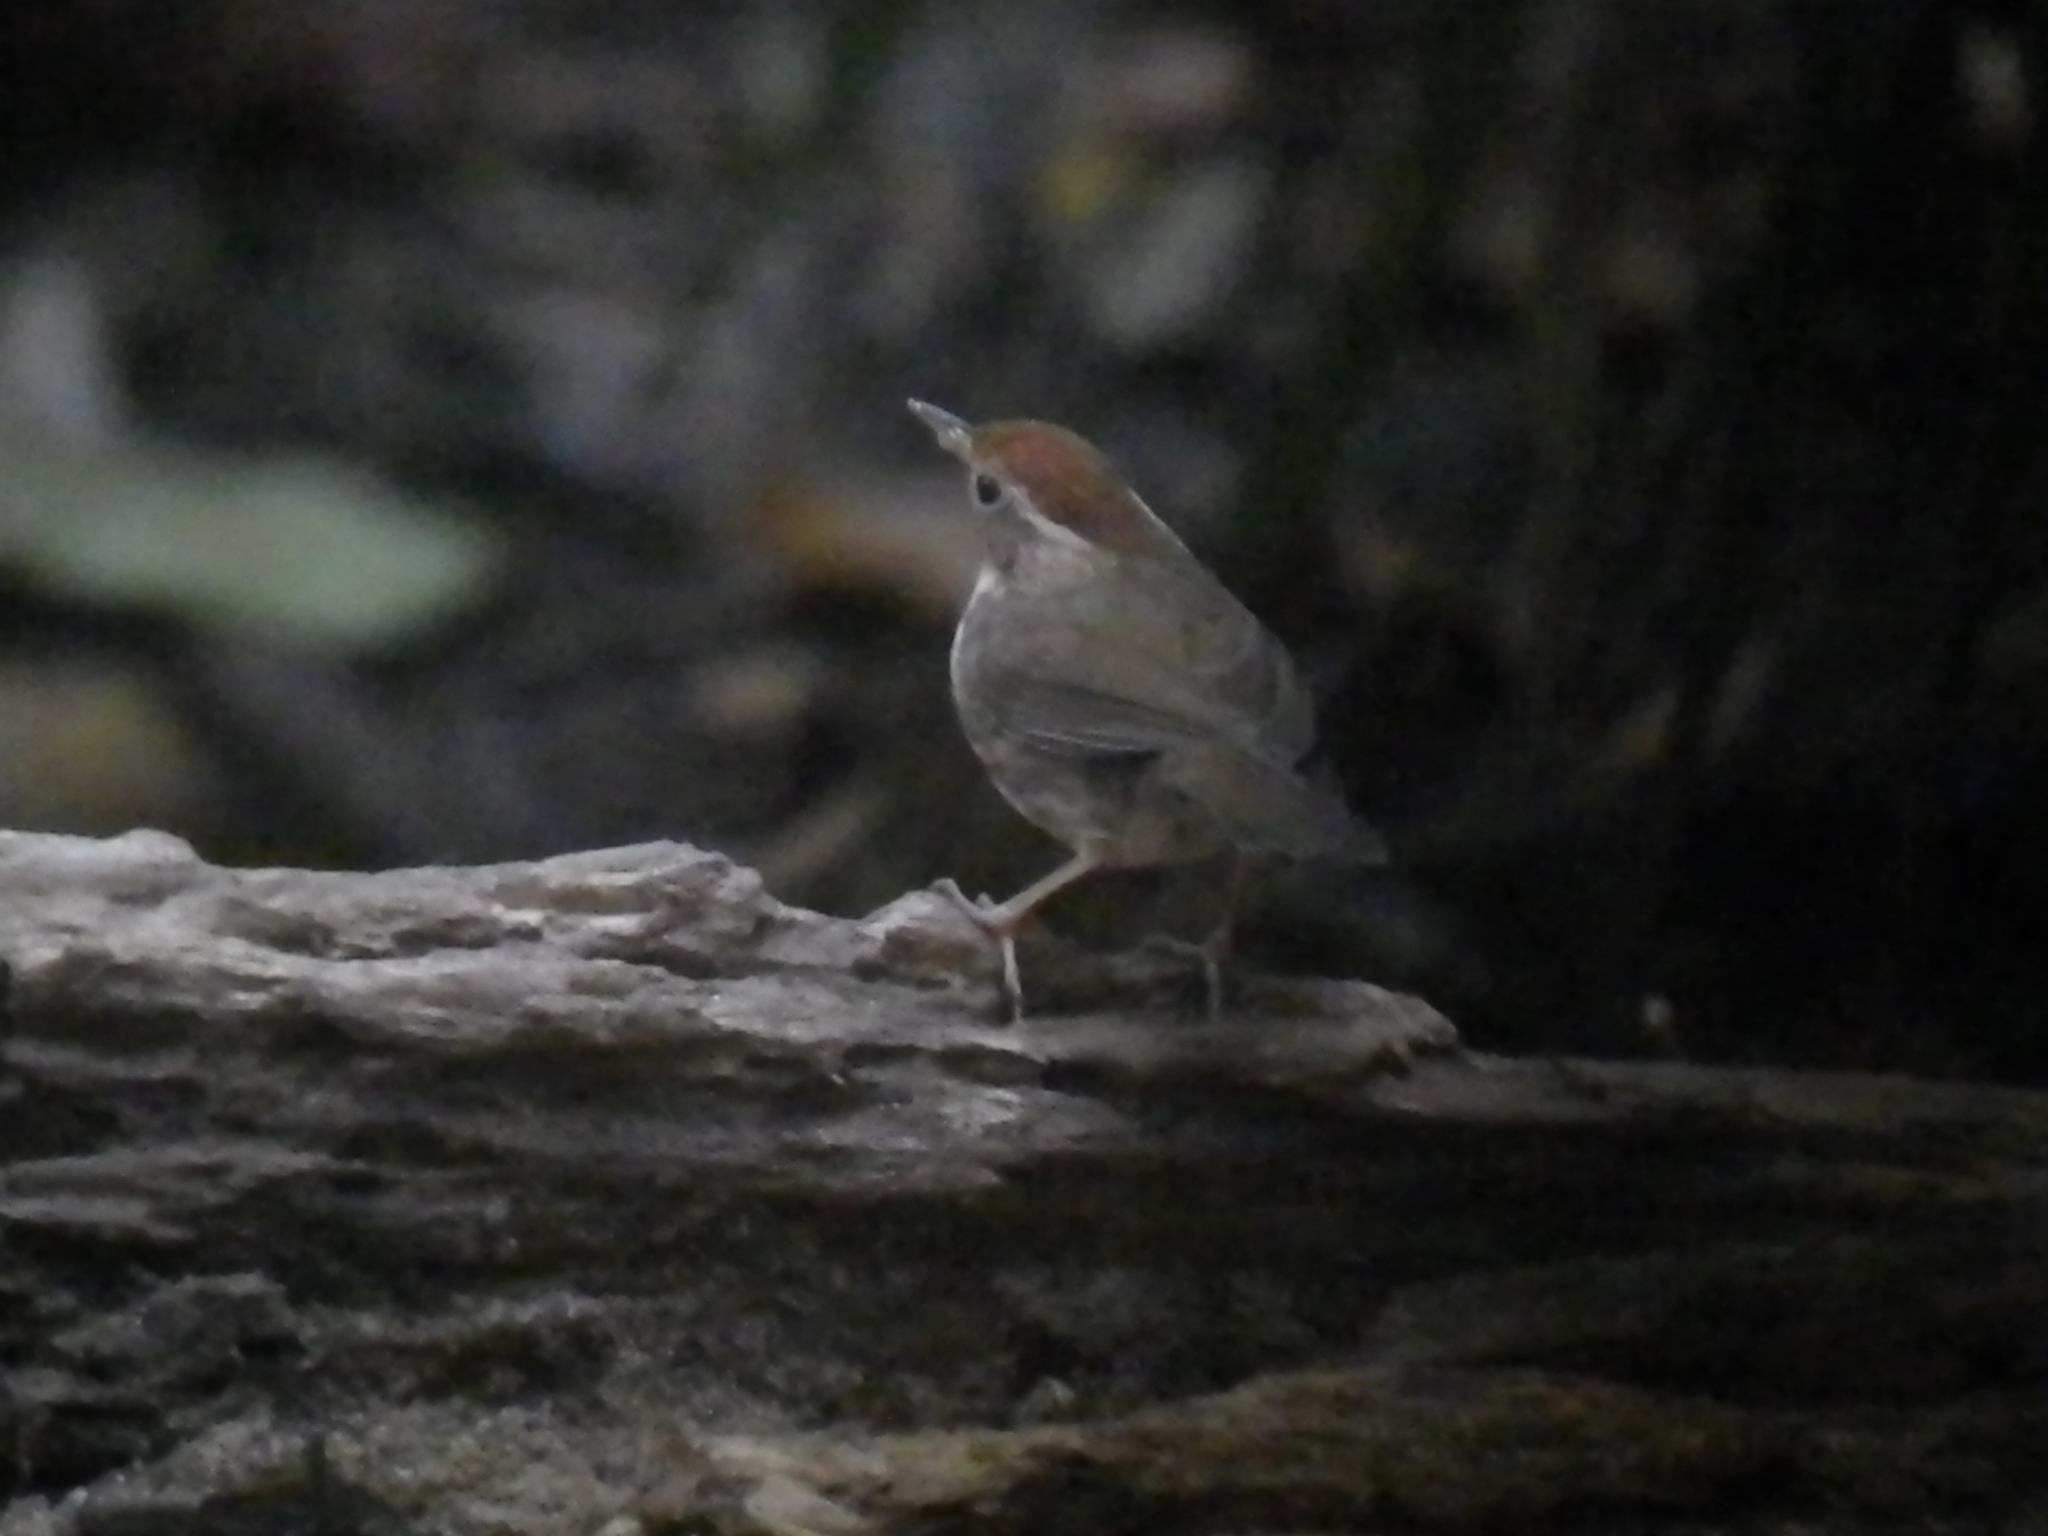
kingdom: Animalia
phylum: Chordata
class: Aves
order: Passeriformes
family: Pellorneidae
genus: Pellorneum
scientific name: Pellorneum ruficeps
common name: Puff-throated babbler
